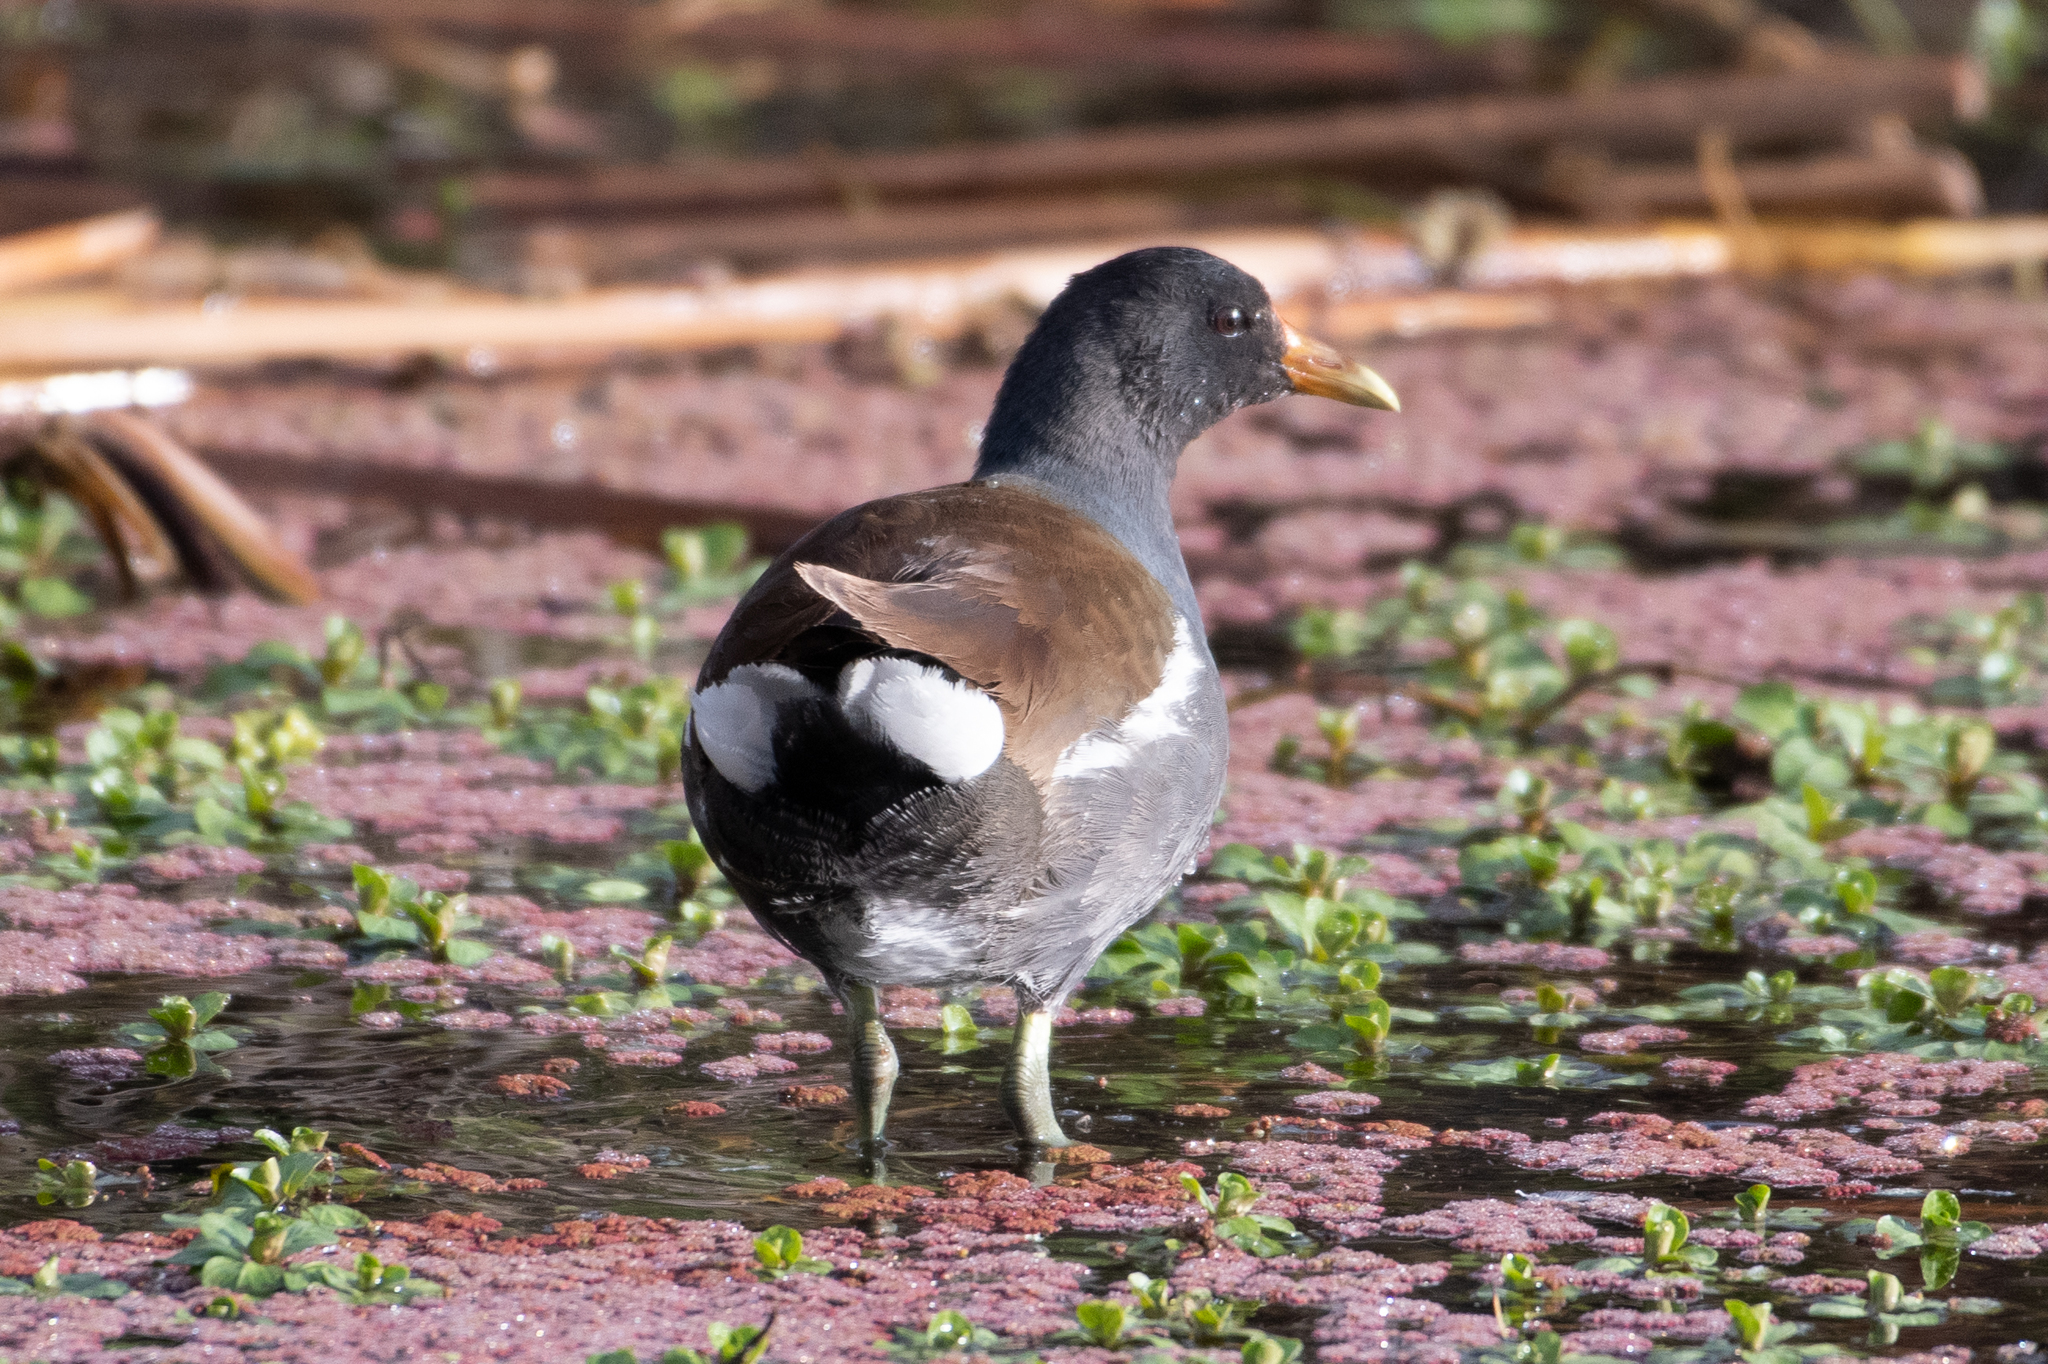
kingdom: Animalia
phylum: Chordata
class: Aves
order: Gruiformes
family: Rallidae
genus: Gallinula
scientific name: Gallinula chloropus
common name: Common moorhen
